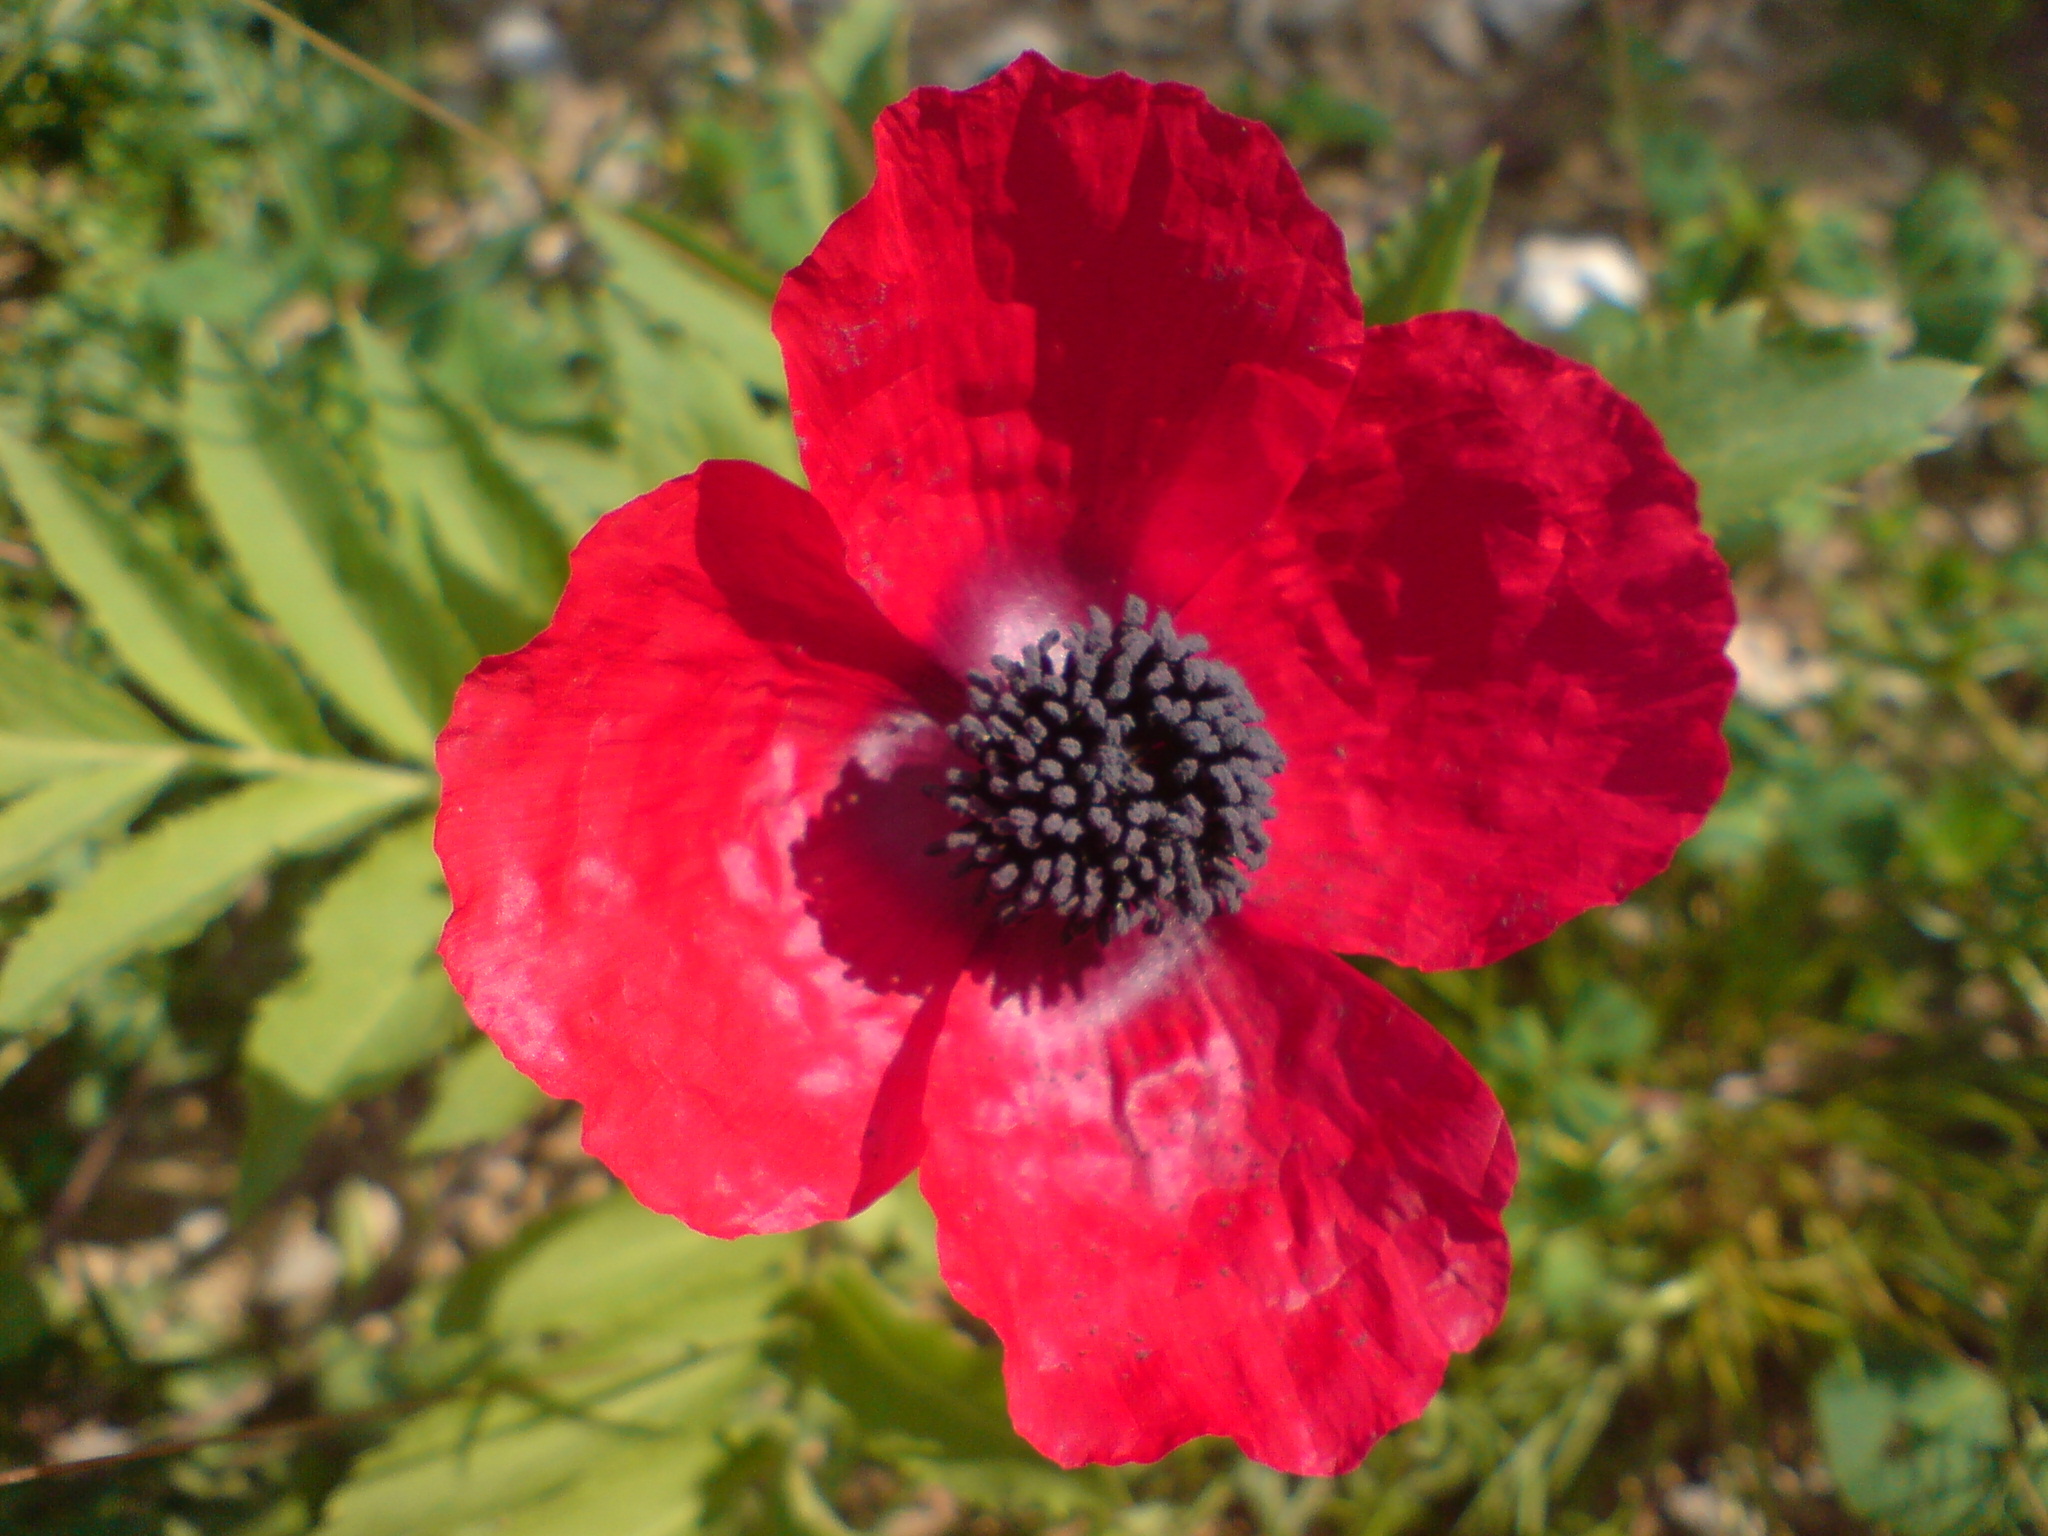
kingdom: Plantae
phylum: Tracheophyta
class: Magnoliopsida
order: Ranunculales
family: Papaveraceae
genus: Roemeria
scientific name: Roemeria apula
